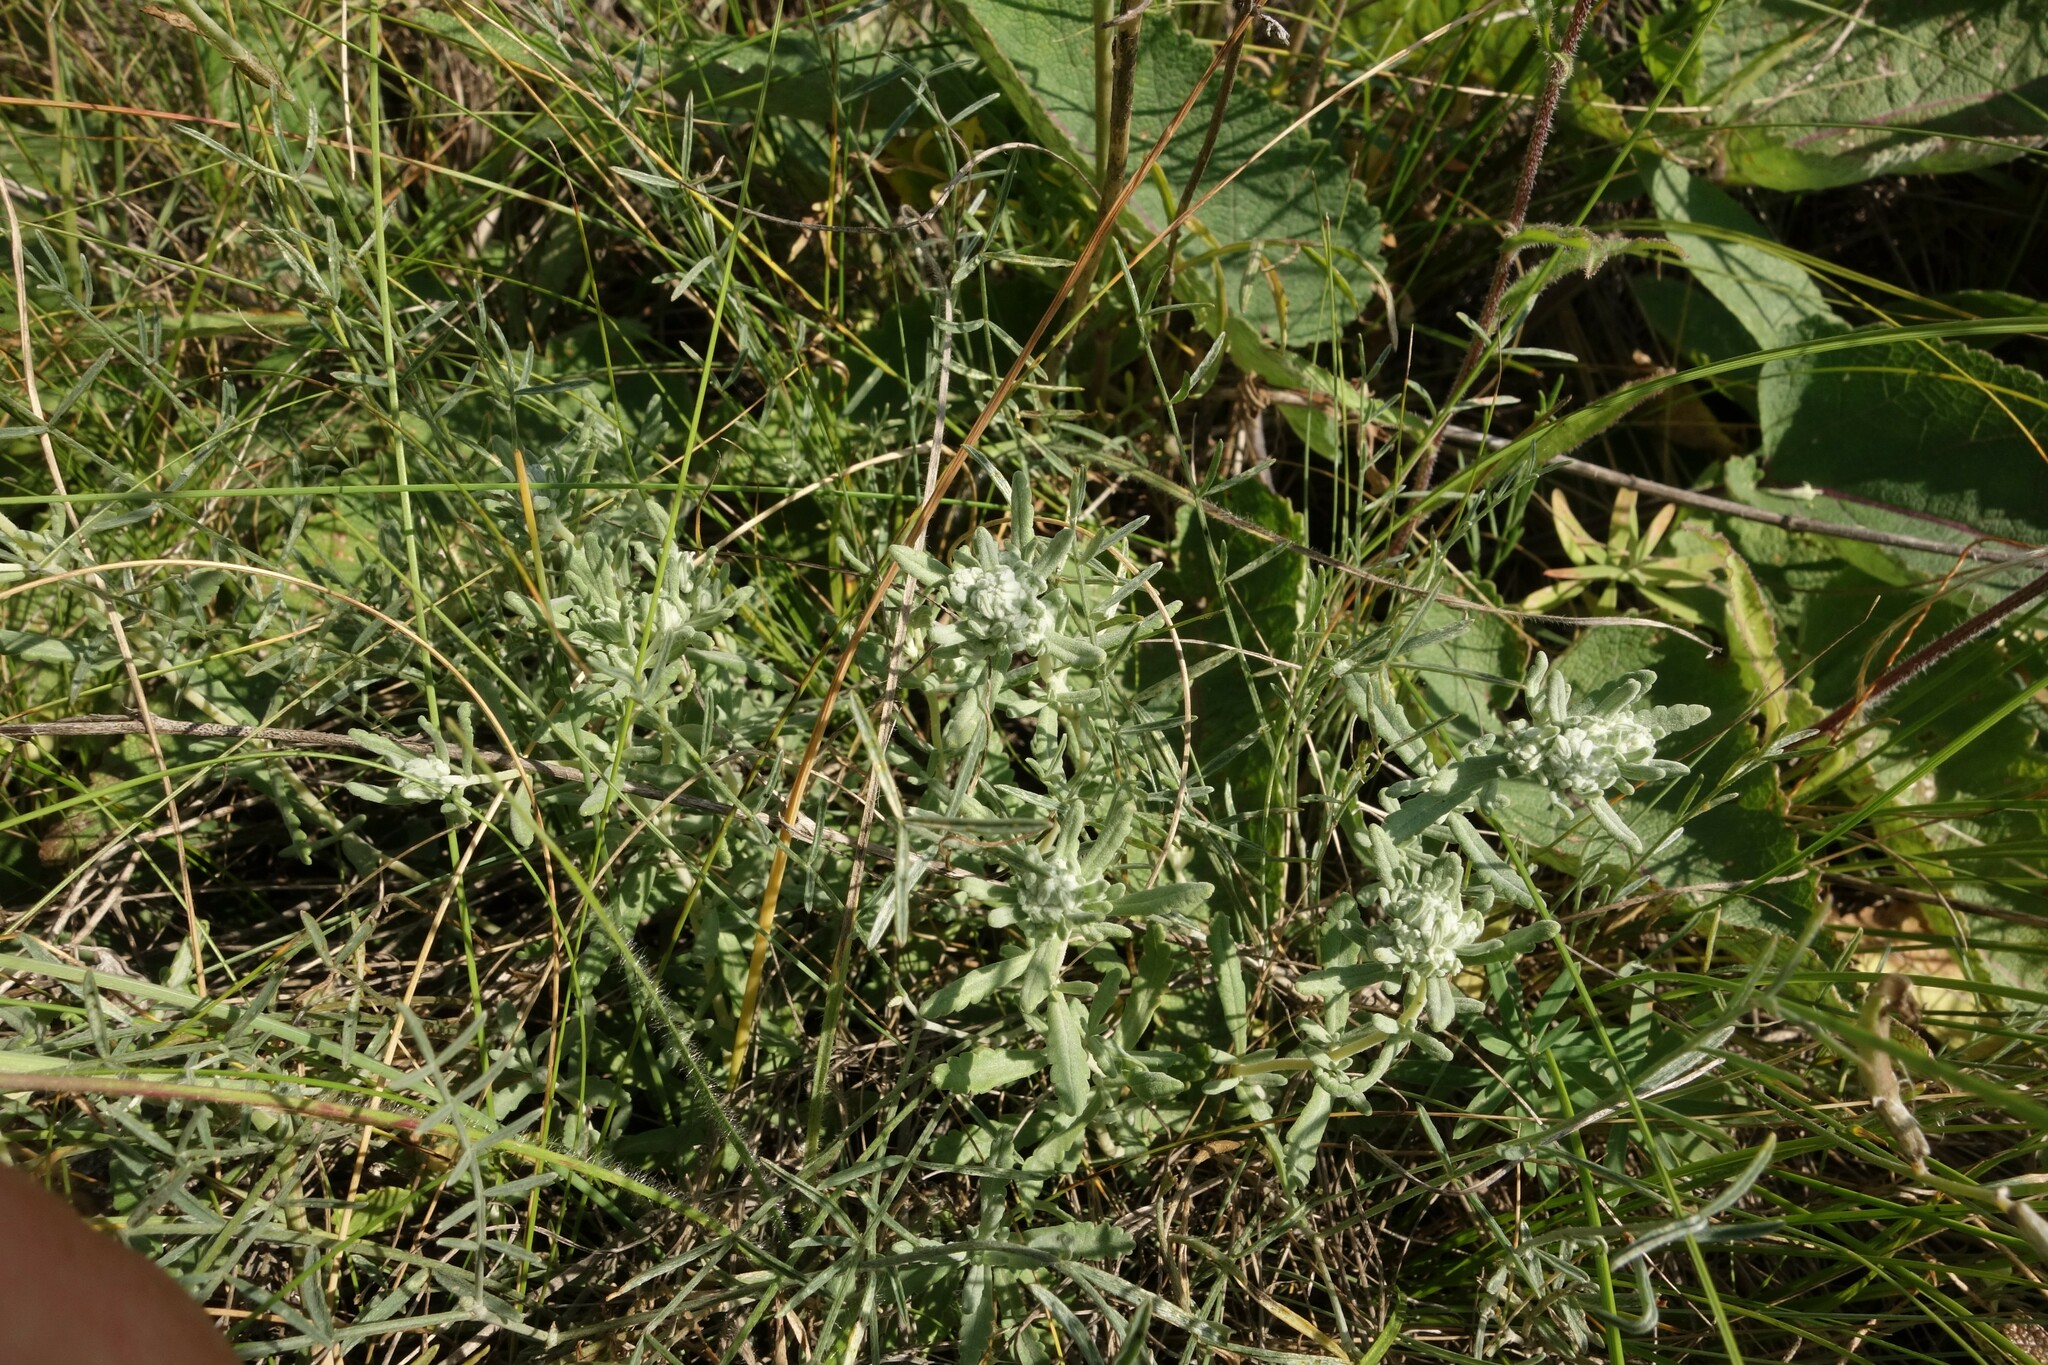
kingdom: Plantae
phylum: Tracheophyta
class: Magnoliopsida
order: Lamiales
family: Lamiaceae
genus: Teucrium
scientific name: Teucrium polium
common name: Poley
